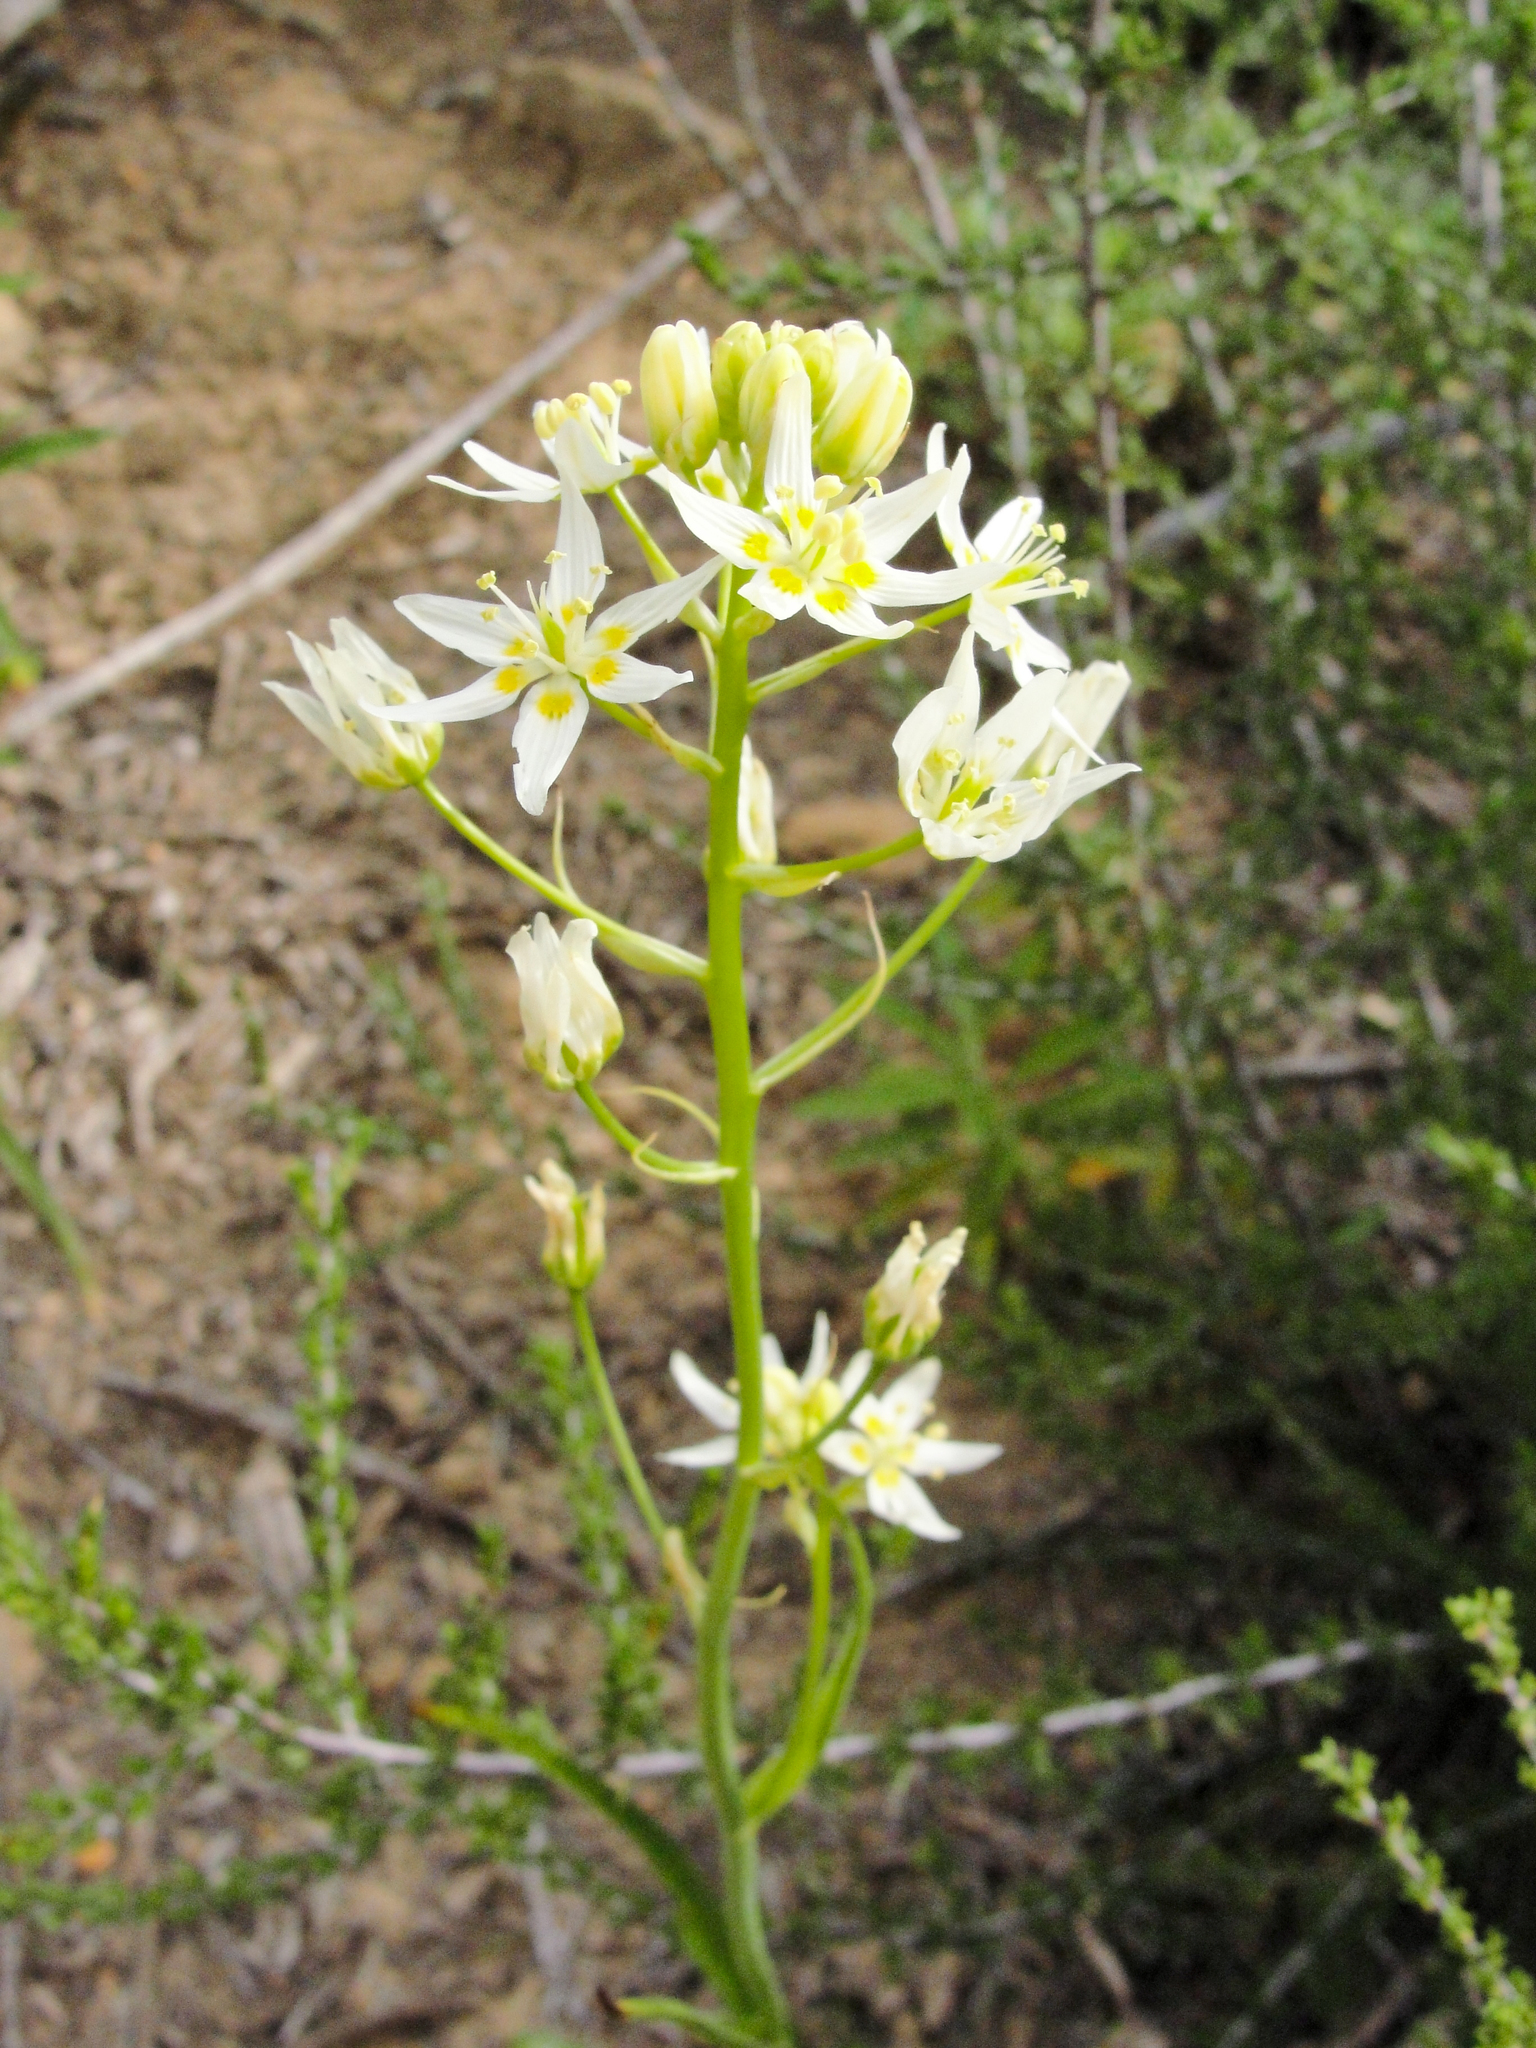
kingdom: Plantae
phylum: Tracheophyta
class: Liliopsida
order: Liliales
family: Melanthiaceae
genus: Toxicoscordion
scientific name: Toxicoscordion fremontii
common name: Fremont's death camas
